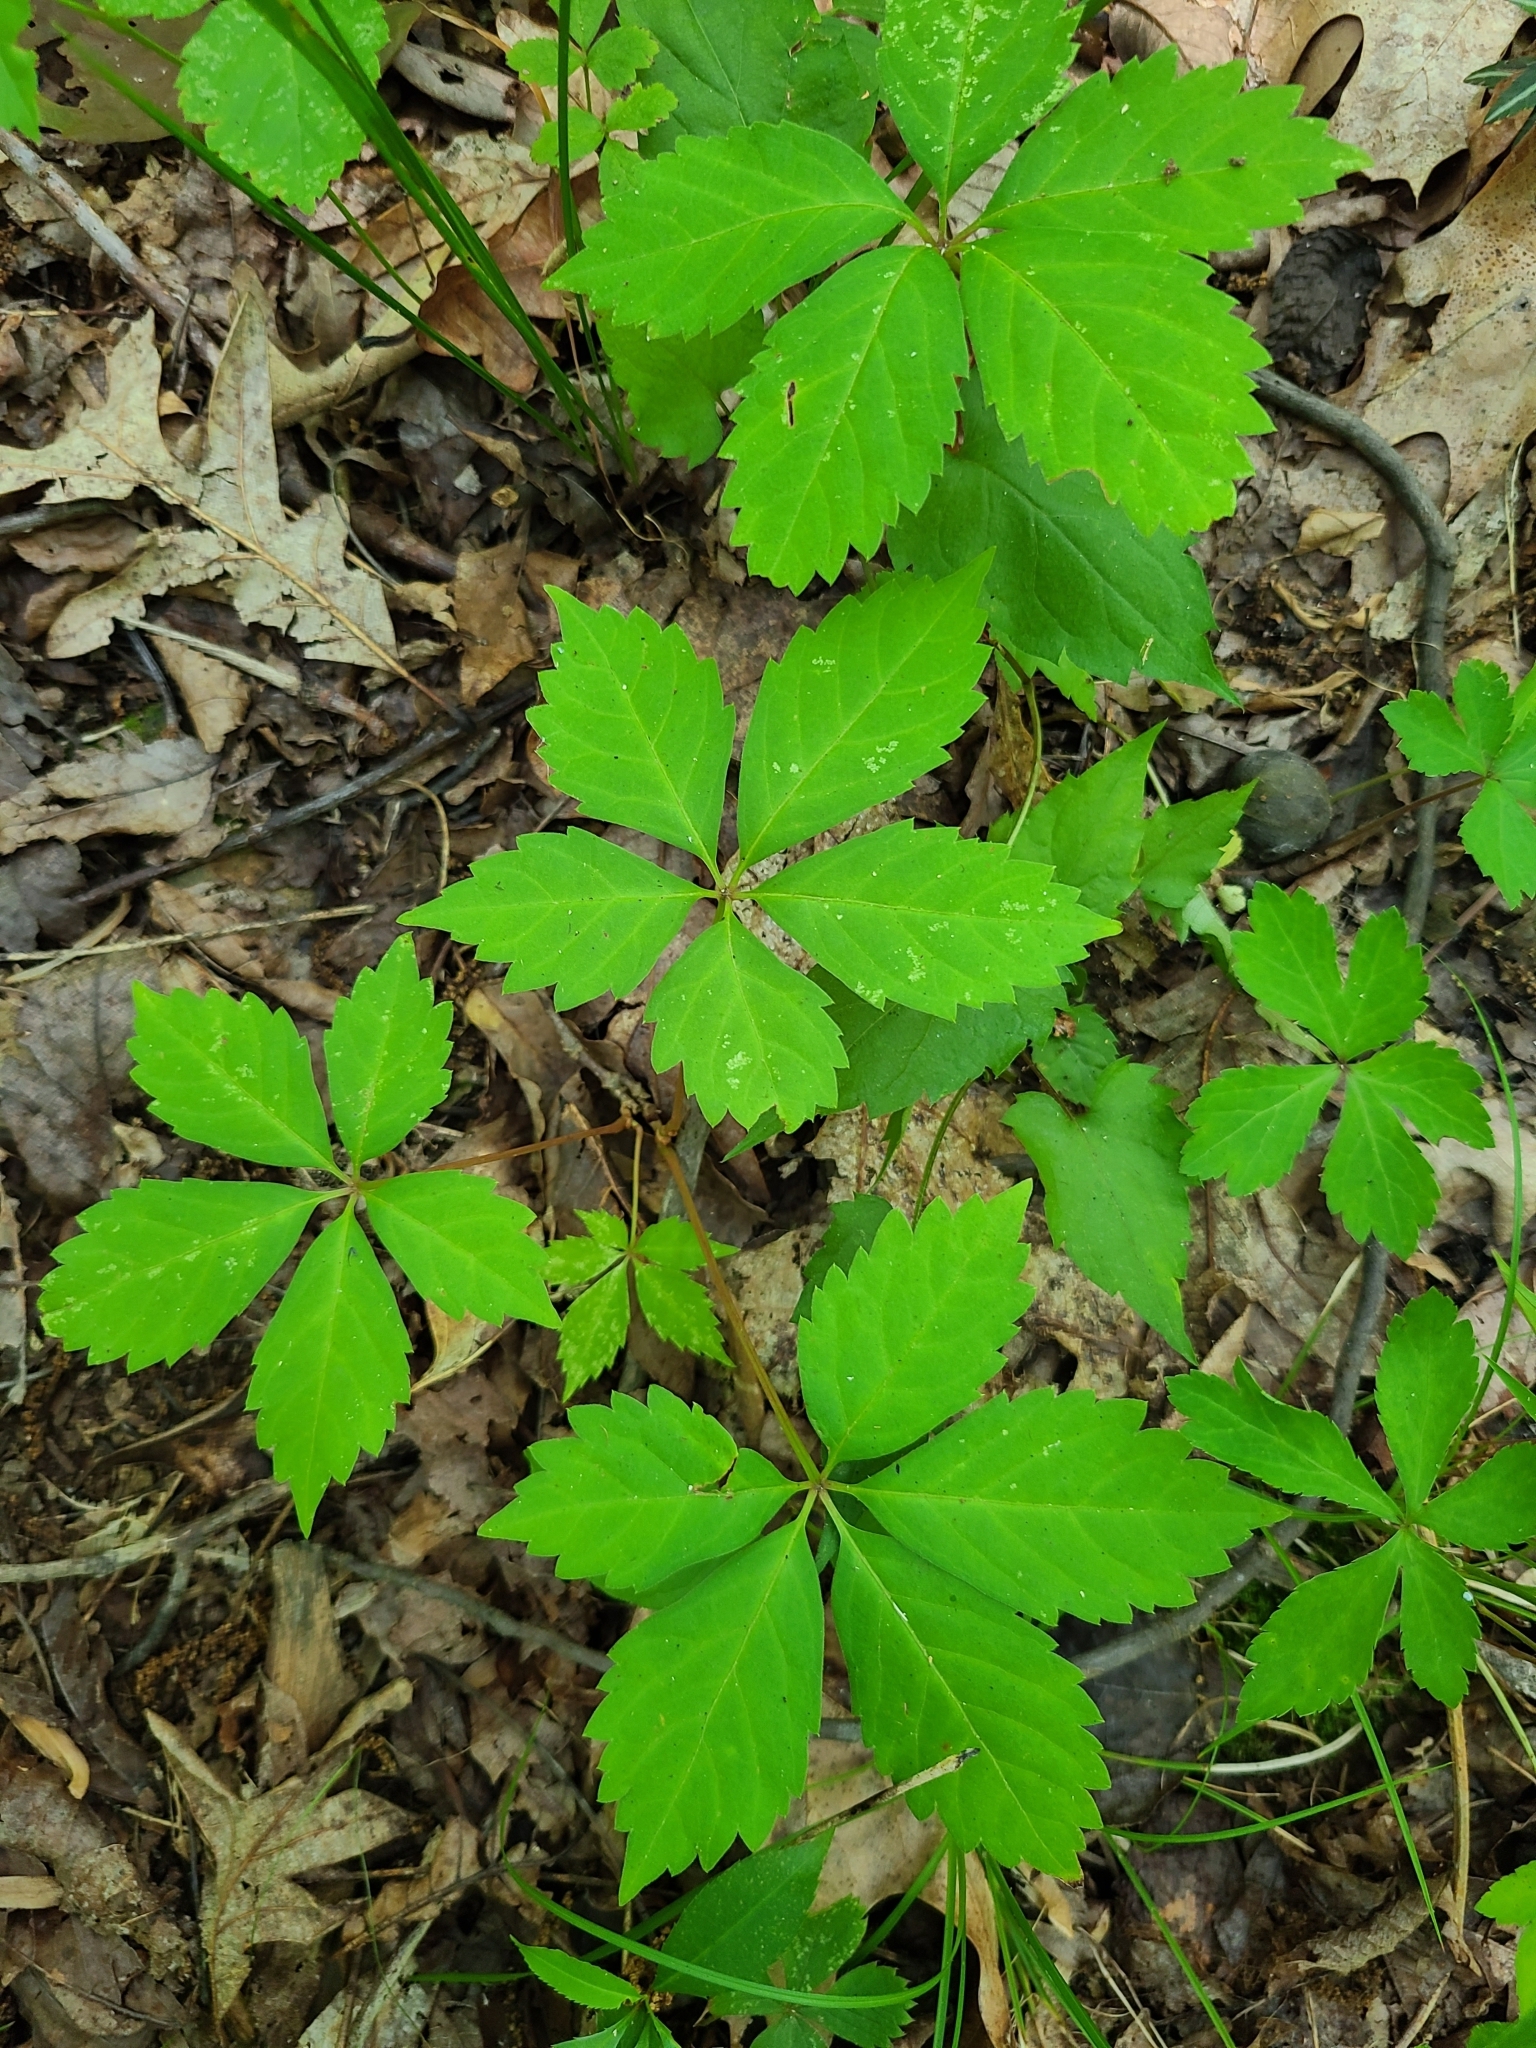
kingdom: Plantae
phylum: Tracheophyta
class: Magnoliopsida
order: Vitales
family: Vitaceae
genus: Parthenocissus
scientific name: Parthenocissus quinquefolia
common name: Virginia-creeper
